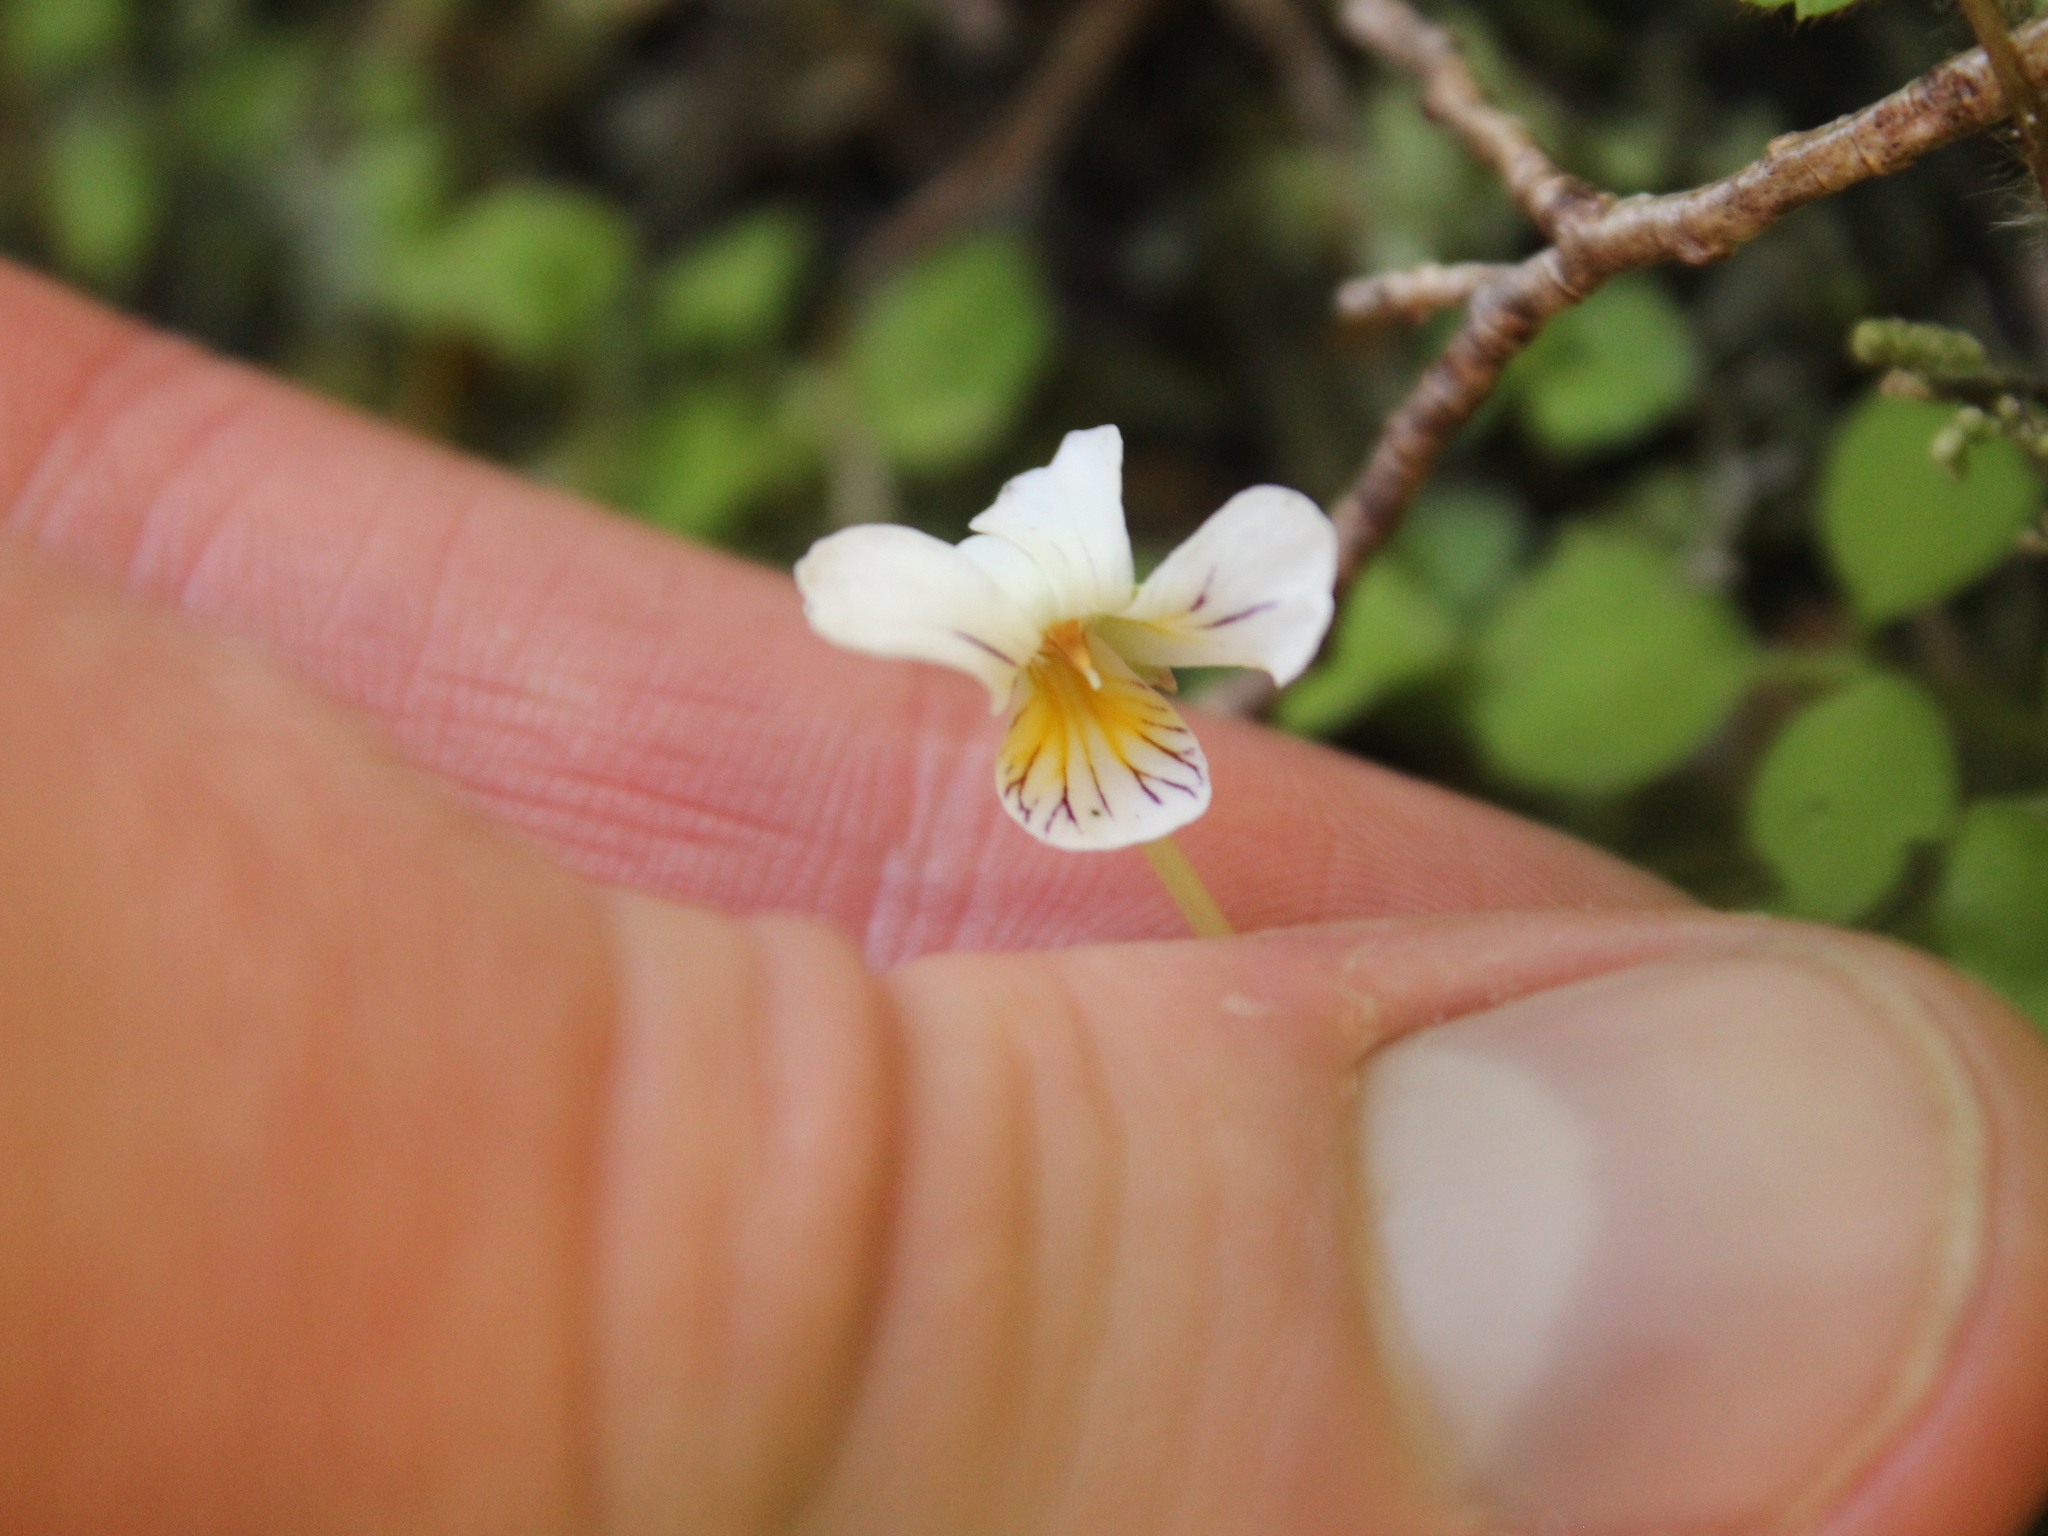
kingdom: Plantae
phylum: Tracheophyta
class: Magnoliopsida
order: Malpighiales
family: Violaceae
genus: Viola
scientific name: Viola filicaulis
